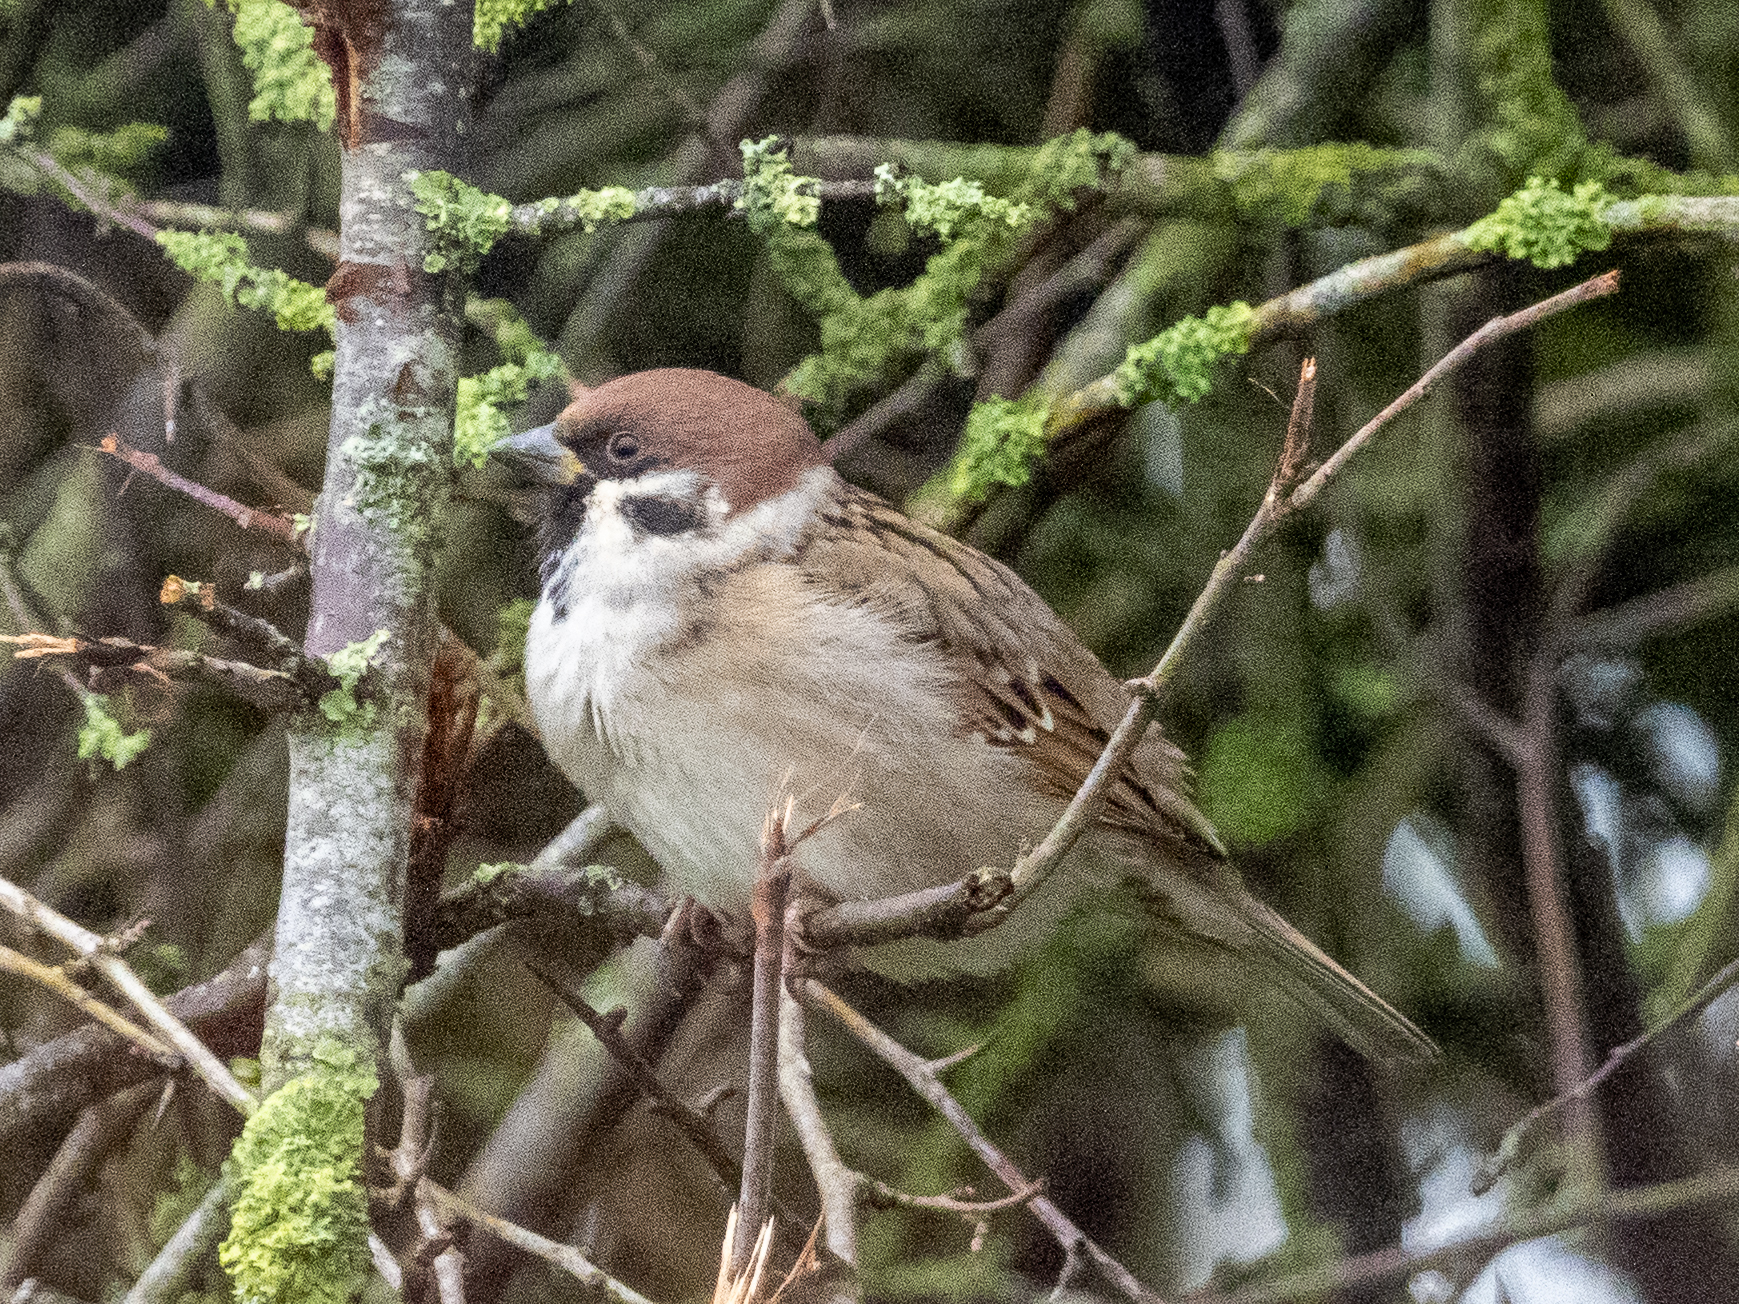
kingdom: Animalia
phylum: Chordata
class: Aves
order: Passeriformes
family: Passeridae
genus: Passer
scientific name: Passer montanus
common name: Eurasian tree sparrow
